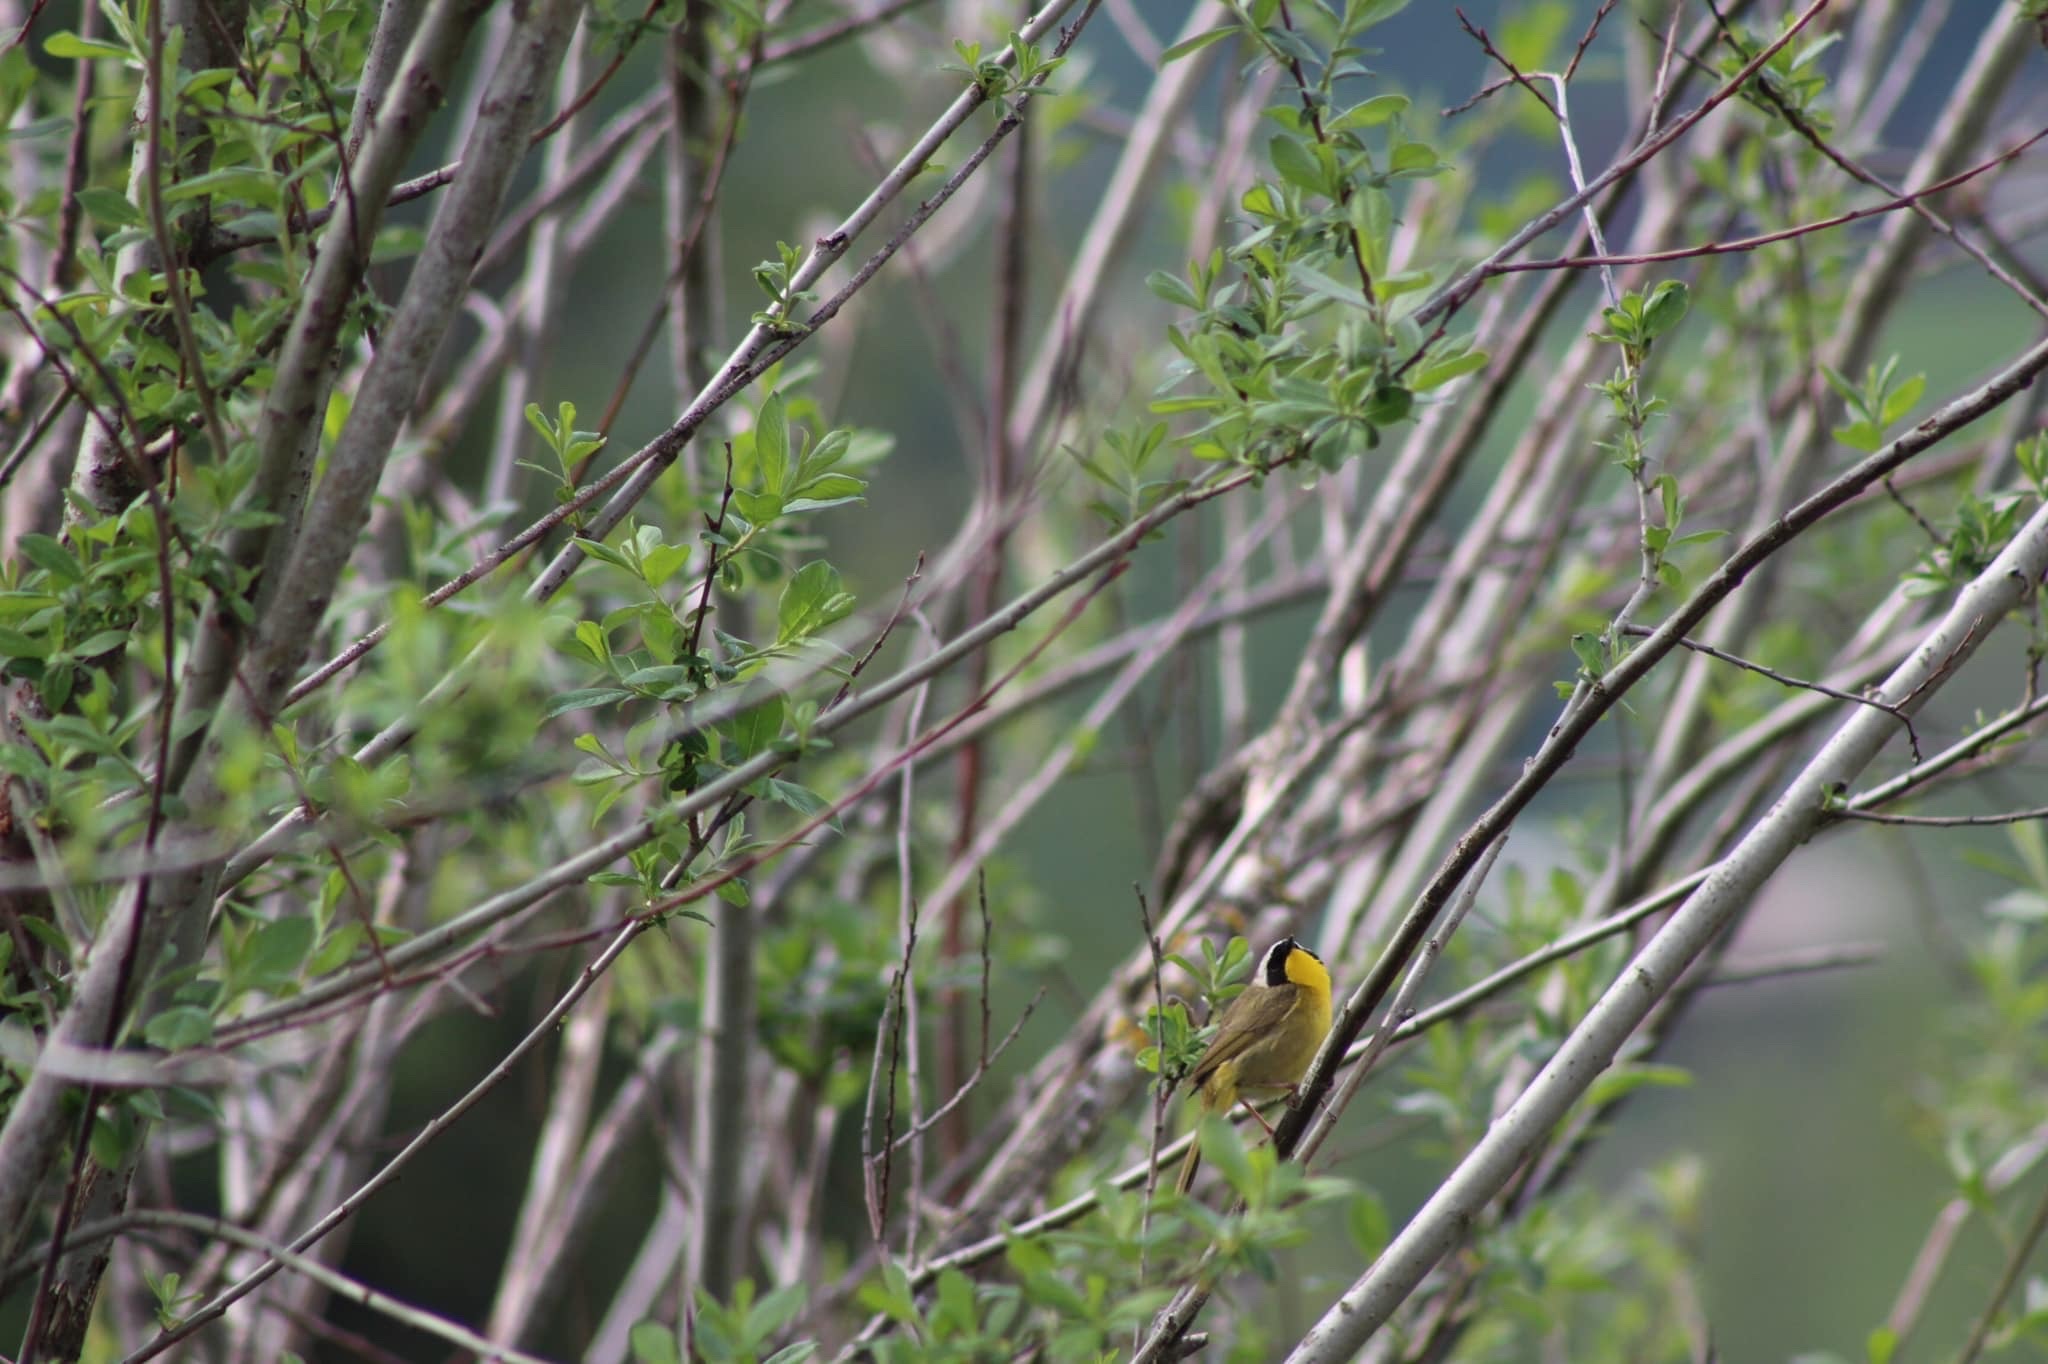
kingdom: Animalia
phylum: Chordata
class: Aves
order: Passeriformes
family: Parulidae
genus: Geothlypis
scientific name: Geothlypis trichas
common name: Common yellowthroat
